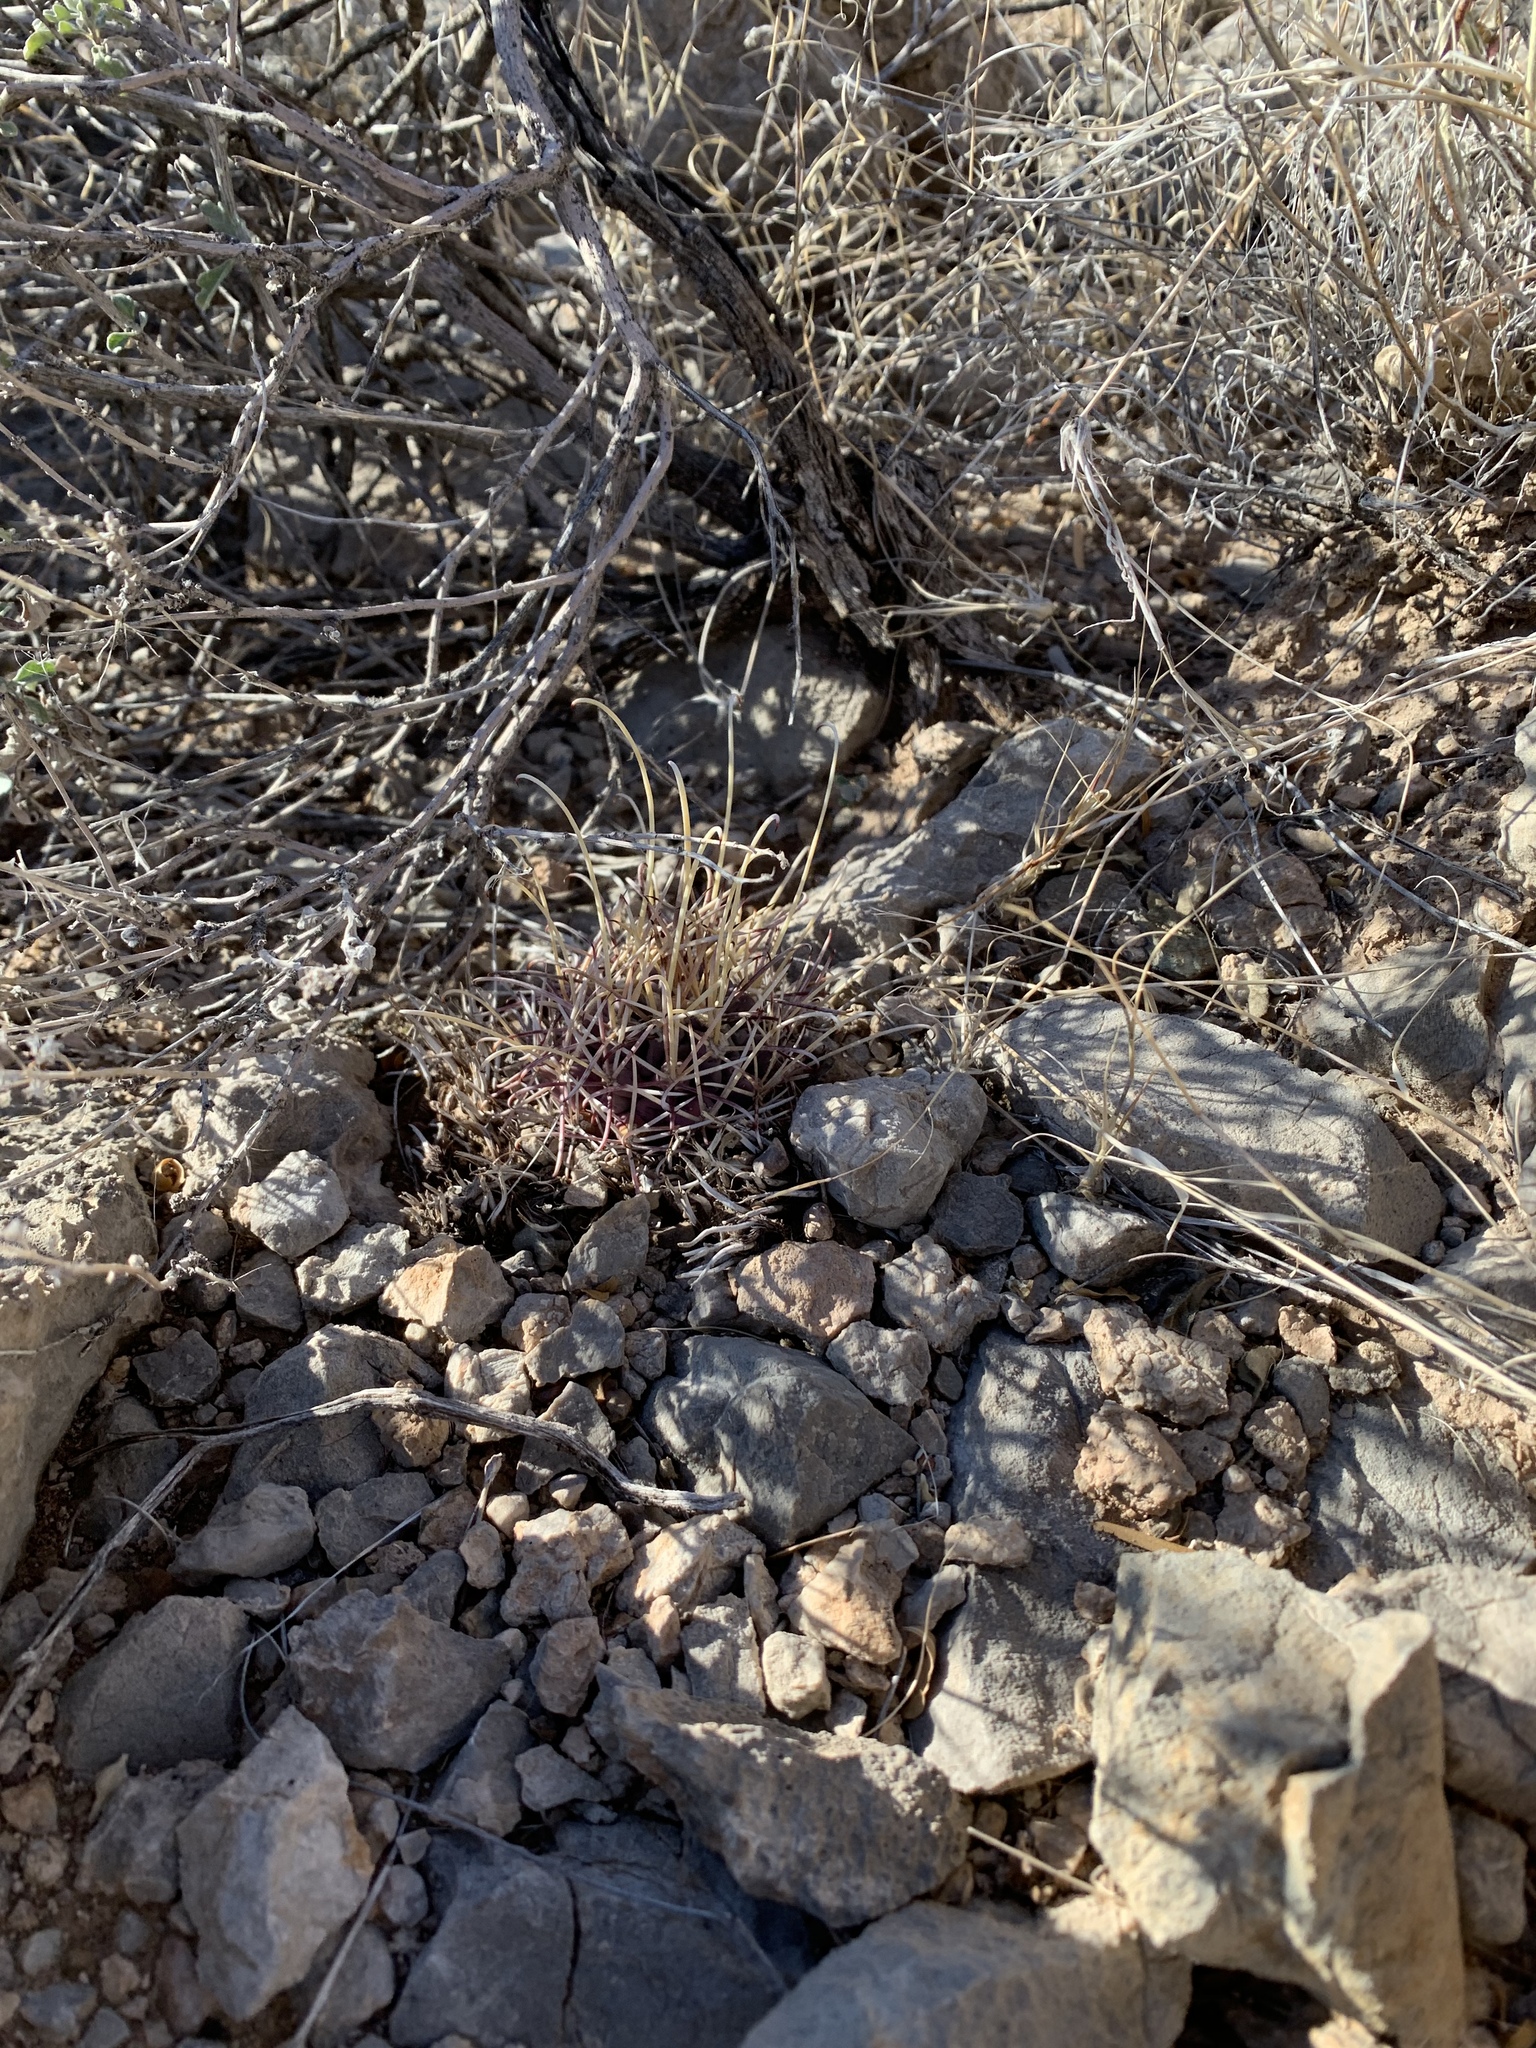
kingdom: Plantae
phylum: Tracheophyta
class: Magnoliopsida
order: Caryophyllales
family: Cactaceae
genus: Ferocactus
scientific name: Ferocactus uncinatus
